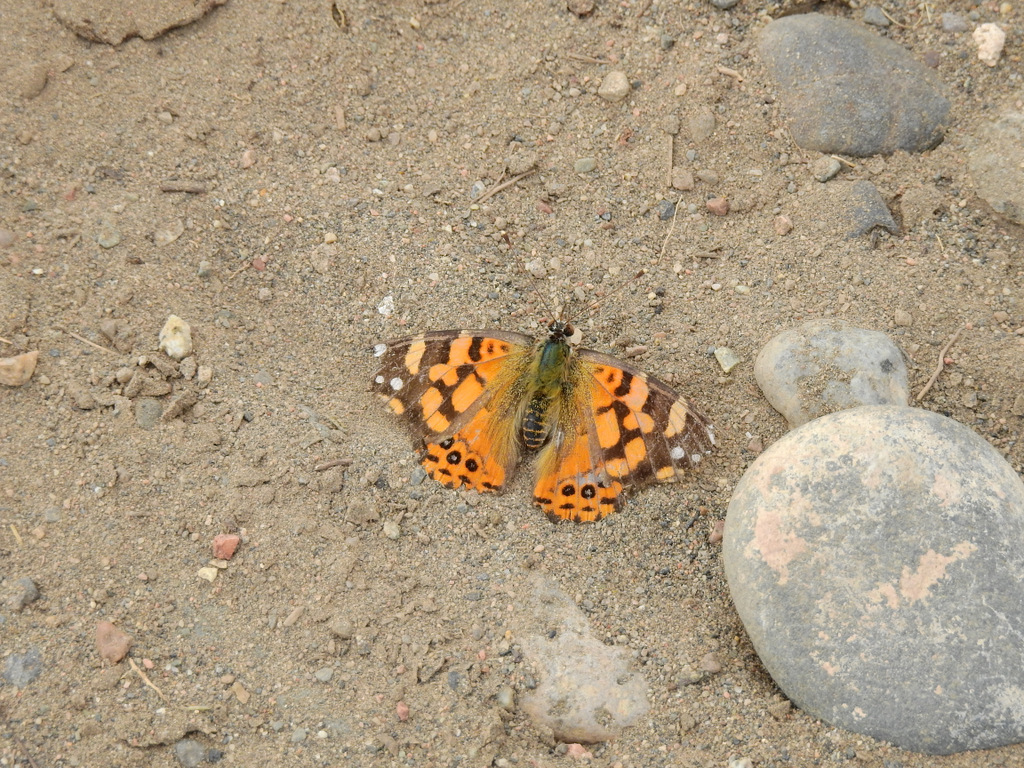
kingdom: Animalia
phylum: Arthropoda
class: Insecta
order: Lepidoptera
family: Nymphalidae
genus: Vanessa
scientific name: Vanessa carye
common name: Subtropical lady
